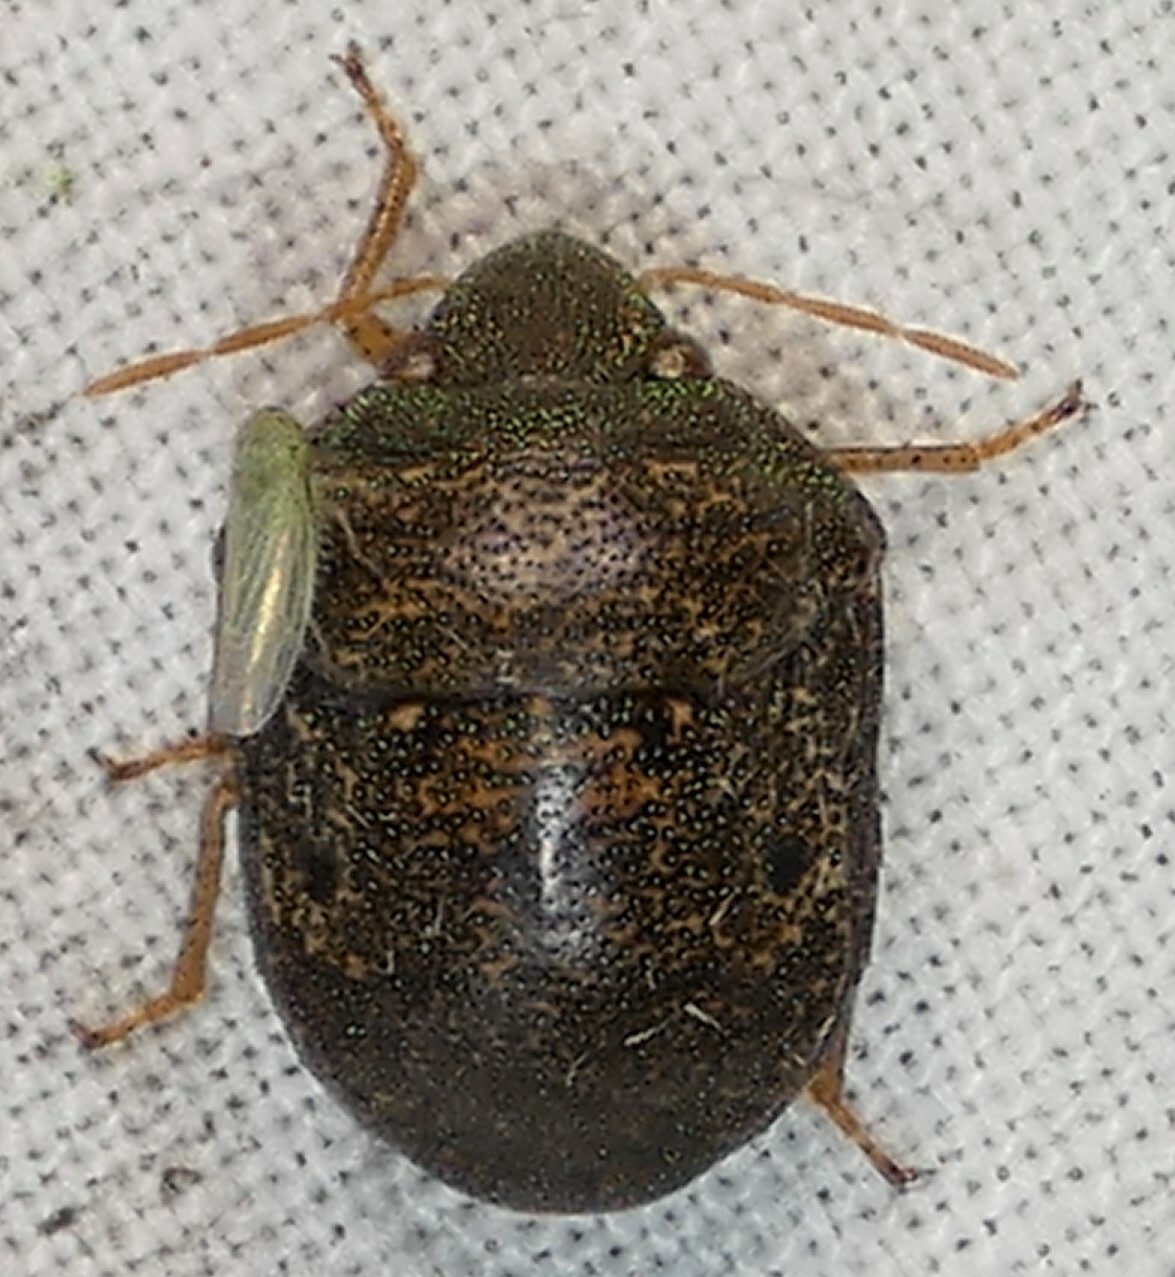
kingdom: Animalia
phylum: Arthropoda
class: Insecta
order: Hemiptera
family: Scutelleridae
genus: Diolcus
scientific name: Diolcus chrysorrhoeus
